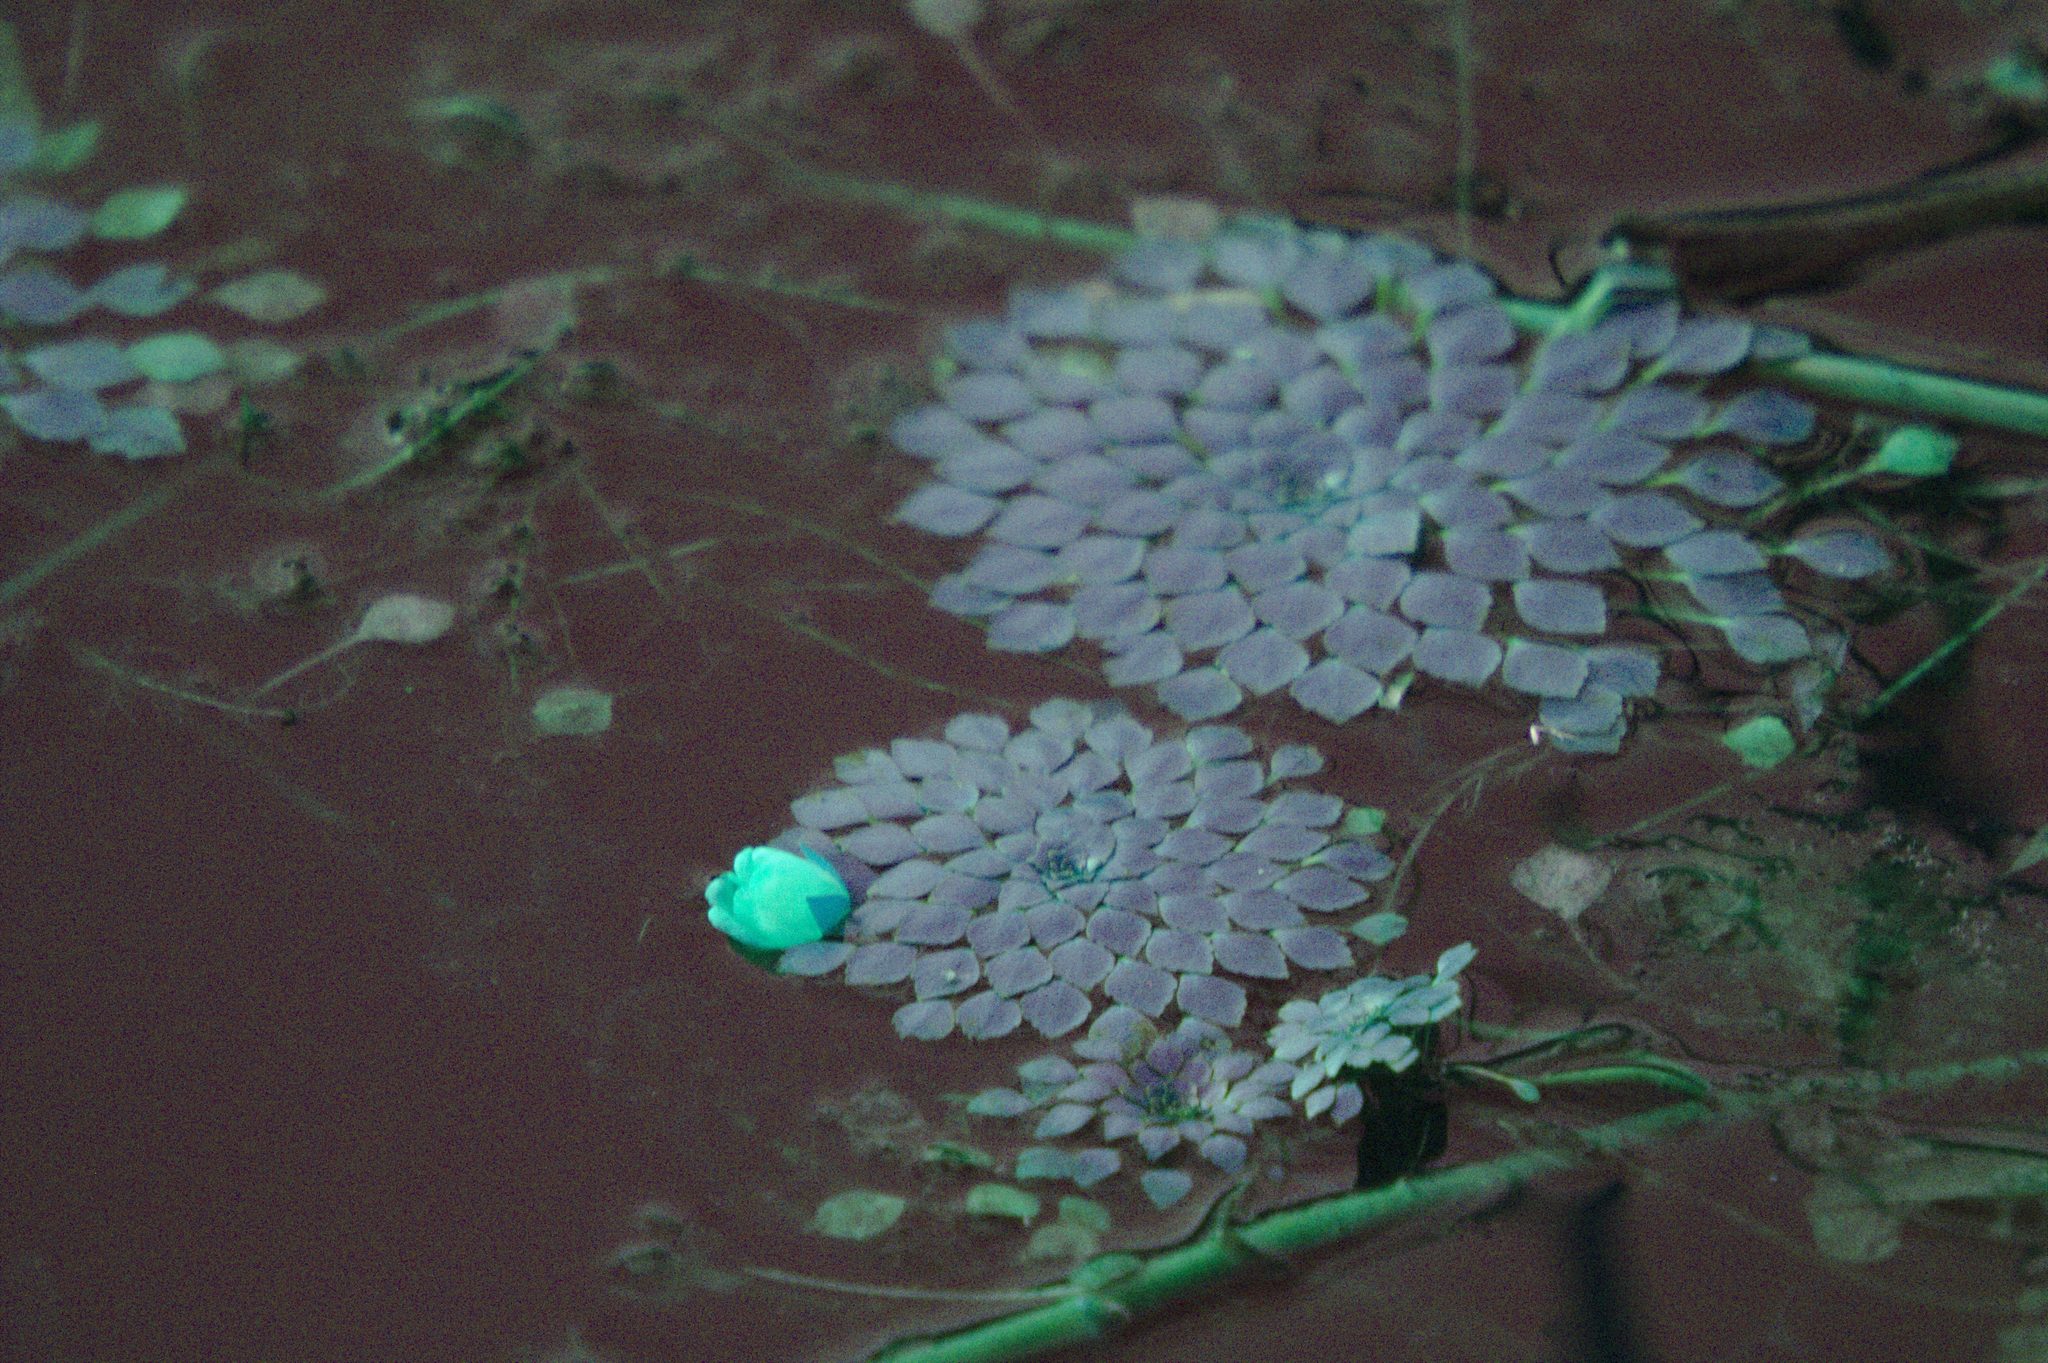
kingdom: Plantae
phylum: Tracheophyta
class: Magnoliopsida
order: Myrtales
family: Onagraceae
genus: Ludwigia
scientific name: Ludwigia sedioides
